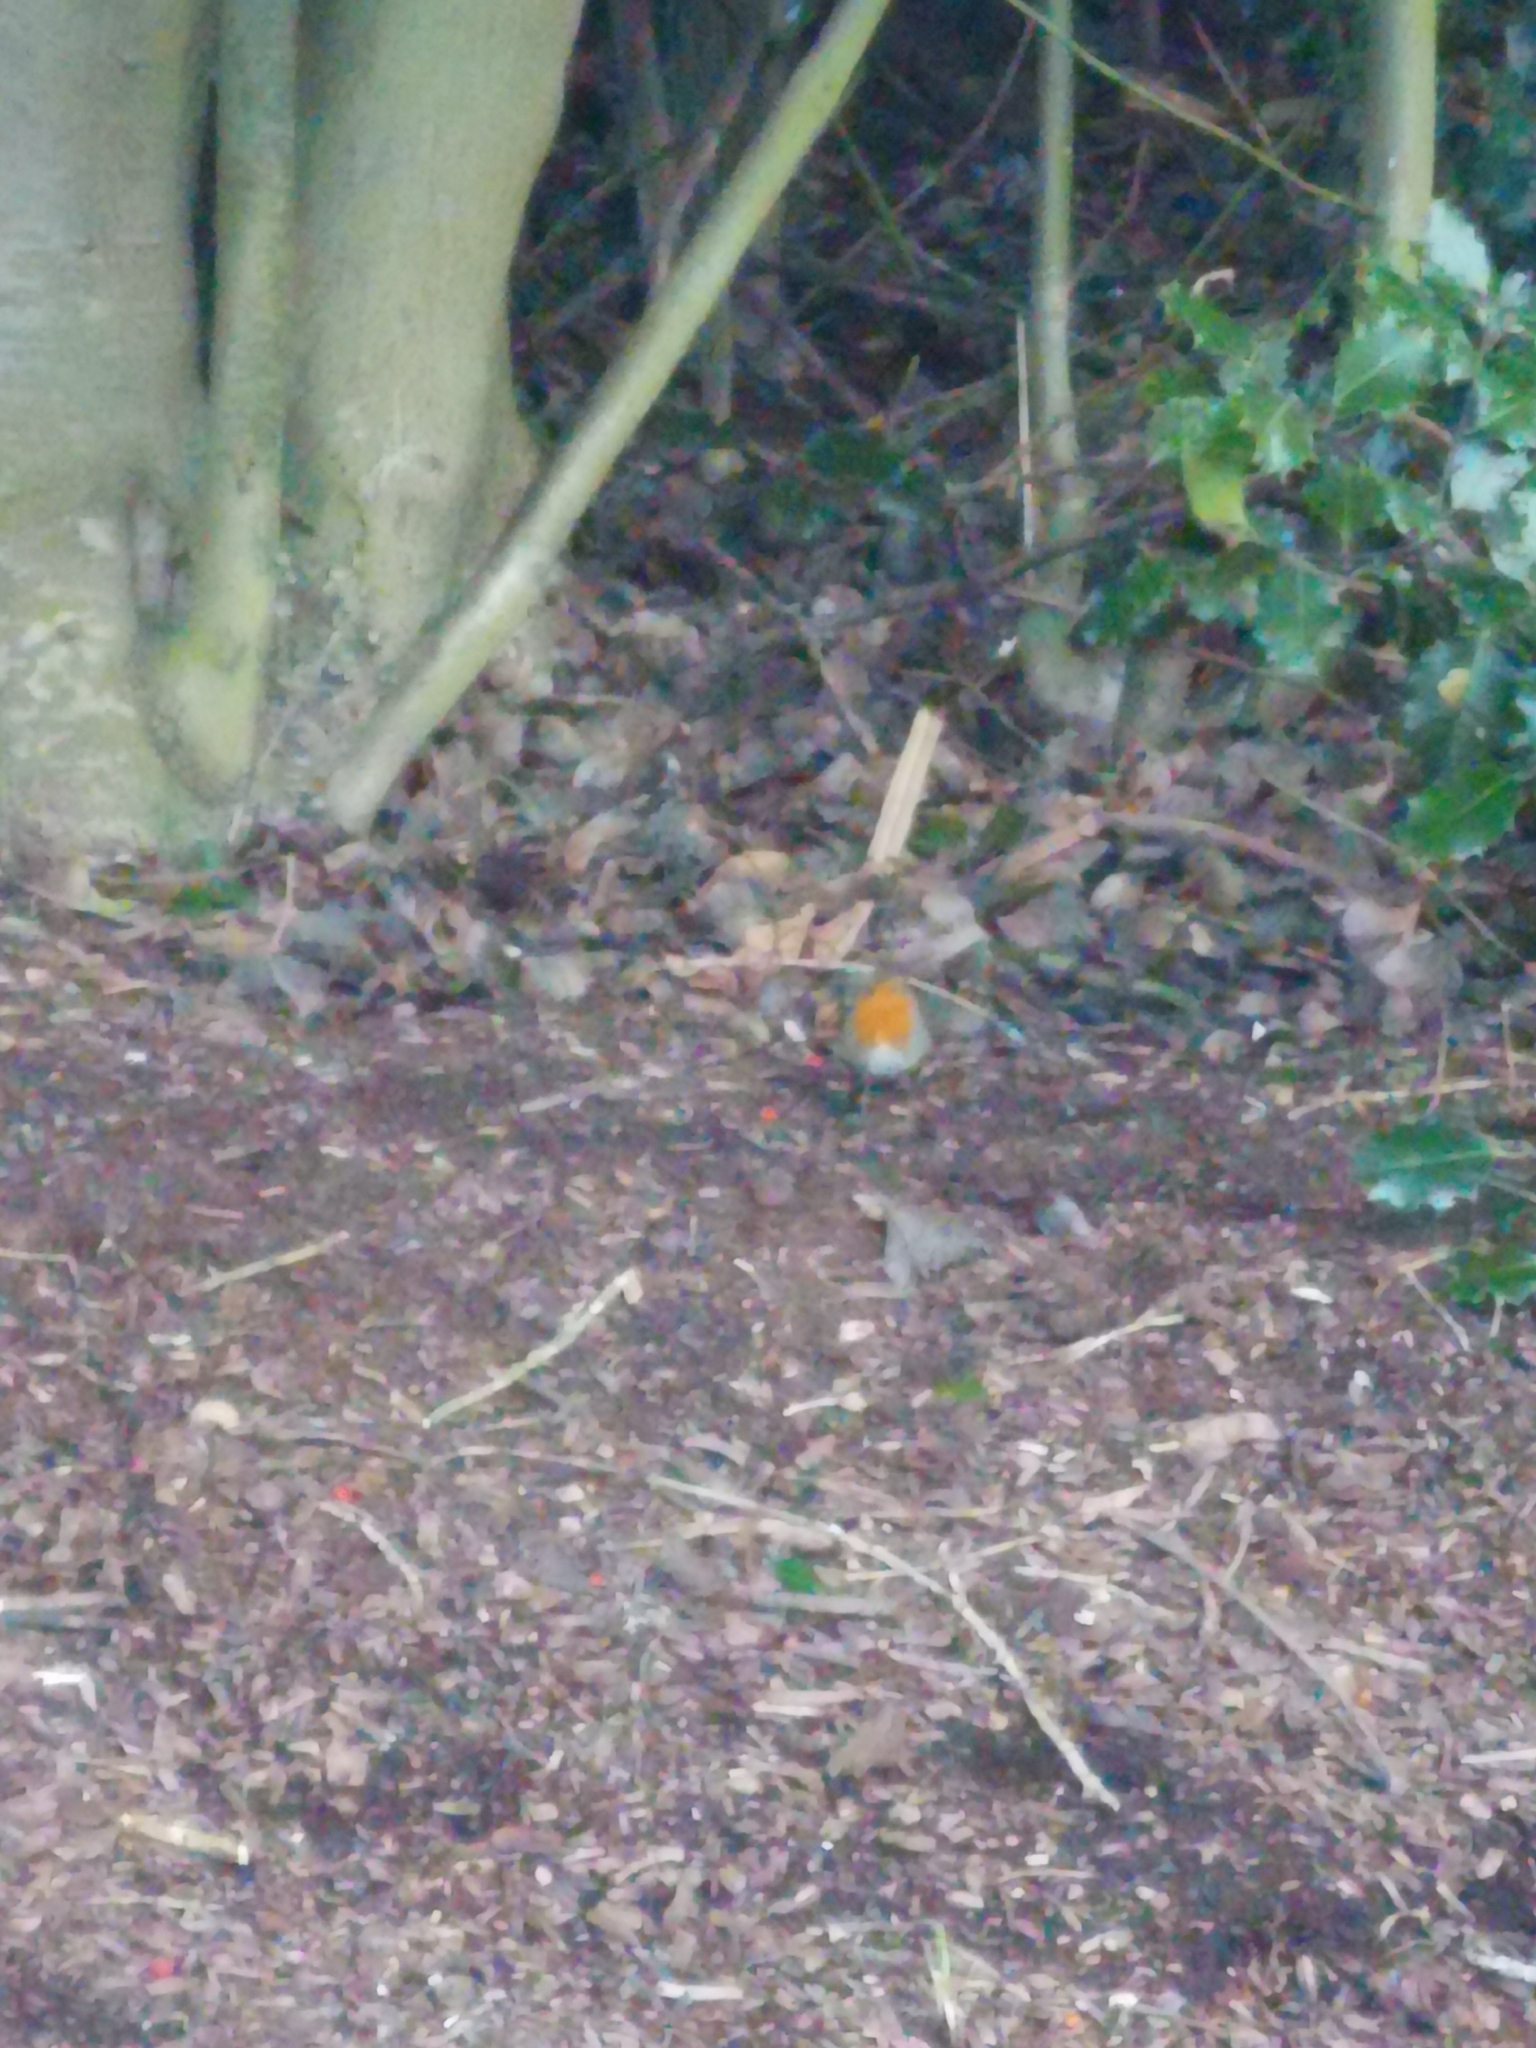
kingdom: Animalia
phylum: Chordata
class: Aves
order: Passeriformes
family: Muscicapidae
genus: Erithacus
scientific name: Erithacus rubecula
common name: European robin
